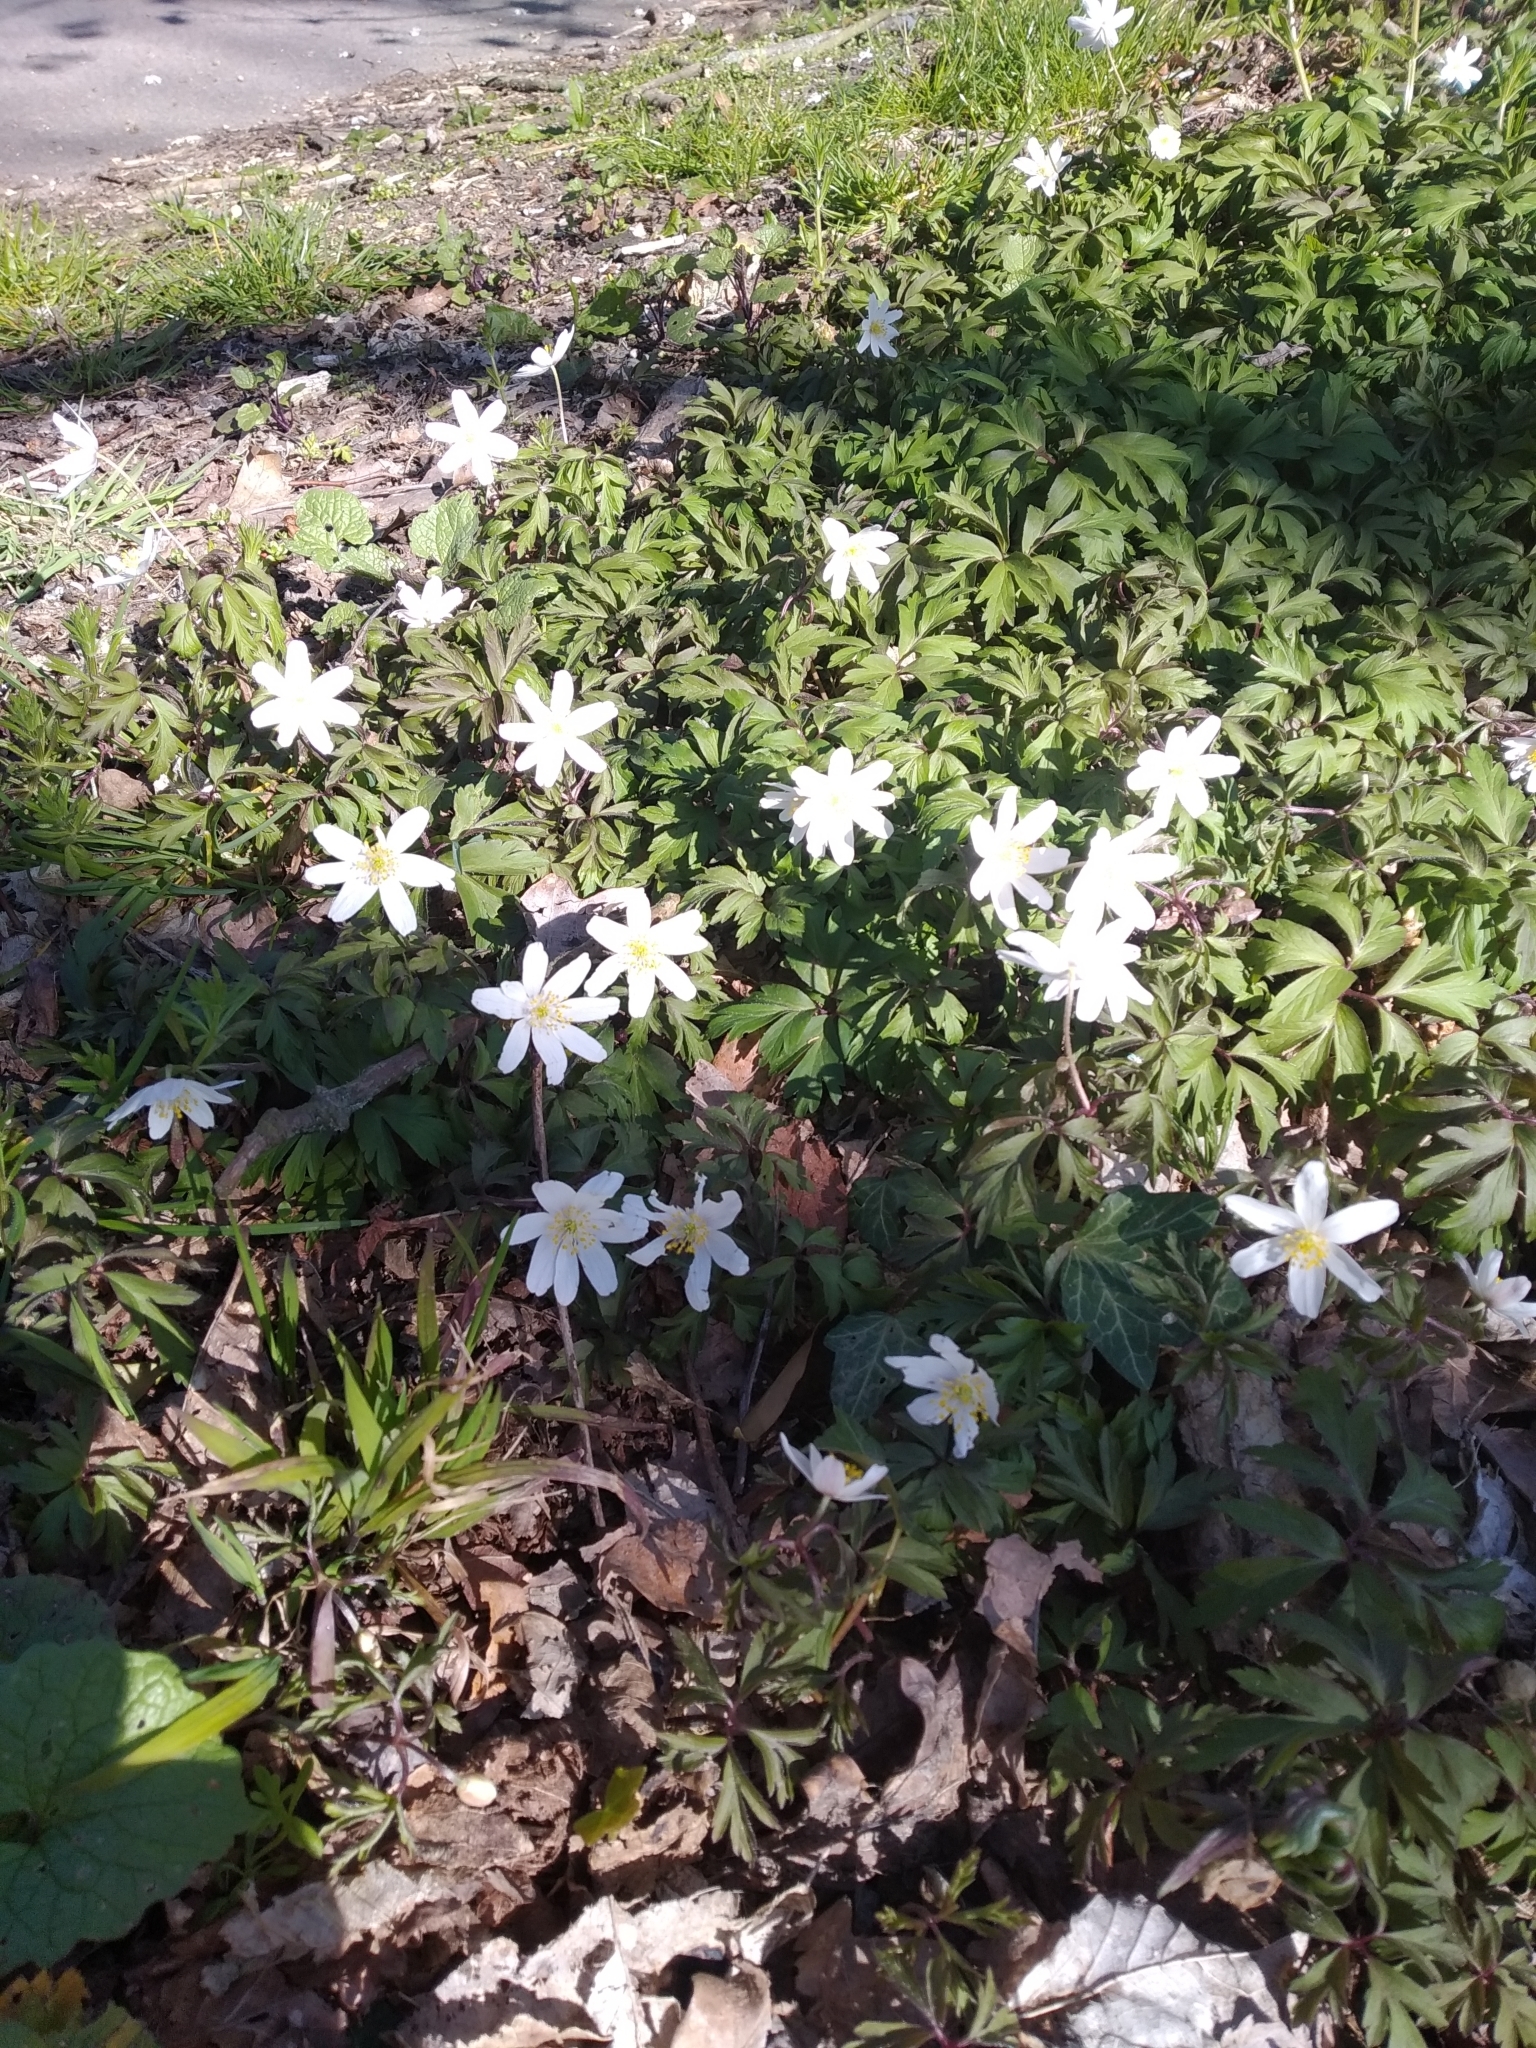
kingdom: Plantae
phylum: Tracheophyta
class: Magnoliopsida
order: Ranunculales
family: Ranunculaceae
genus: Anemone
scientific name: Anemone nemorosa
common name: Wood anemone
